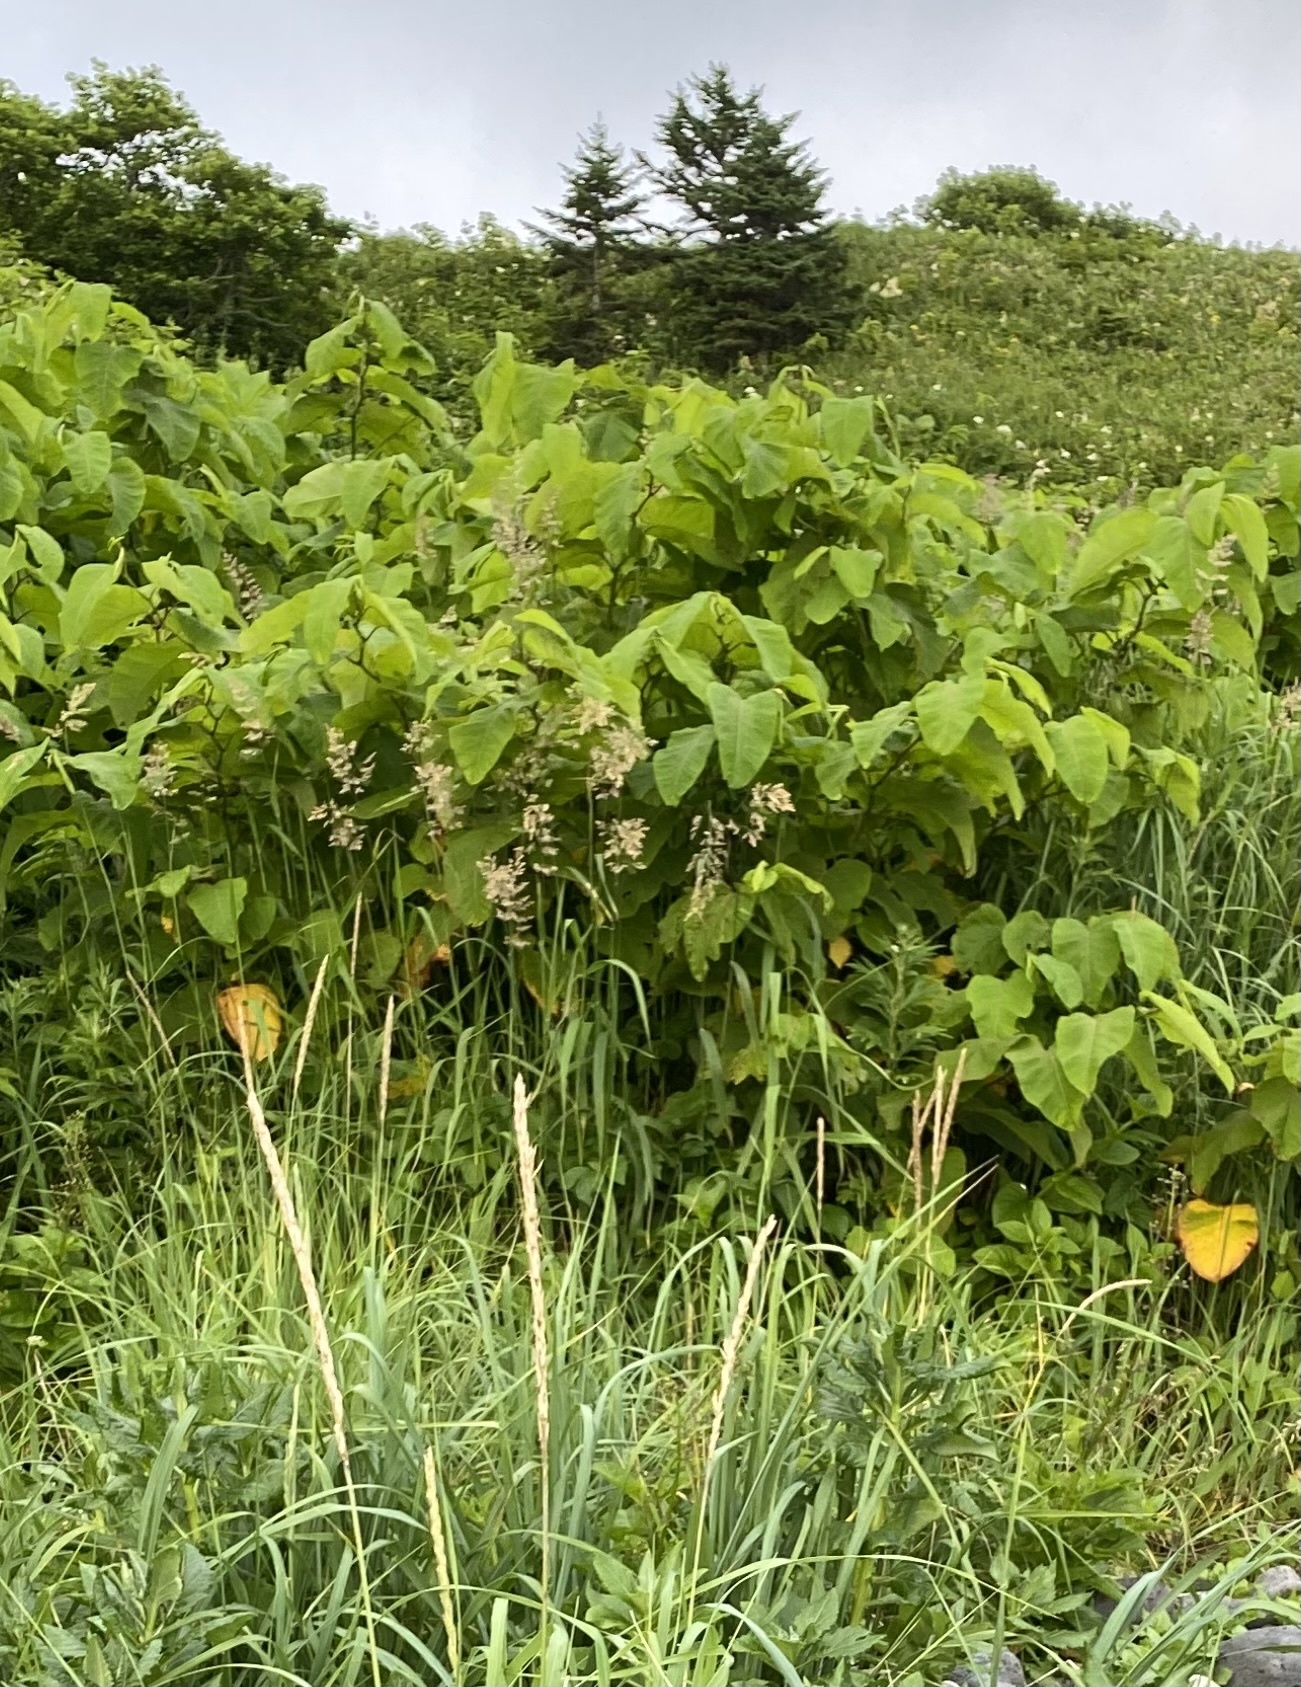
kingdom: Plantae
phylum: Tracheophyta
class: Magnoliopsida
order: Caryophyllales
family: Polygonaceae
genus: Reynoutria
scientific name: Reynoutria sachalinensis
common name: Giant knotweed
